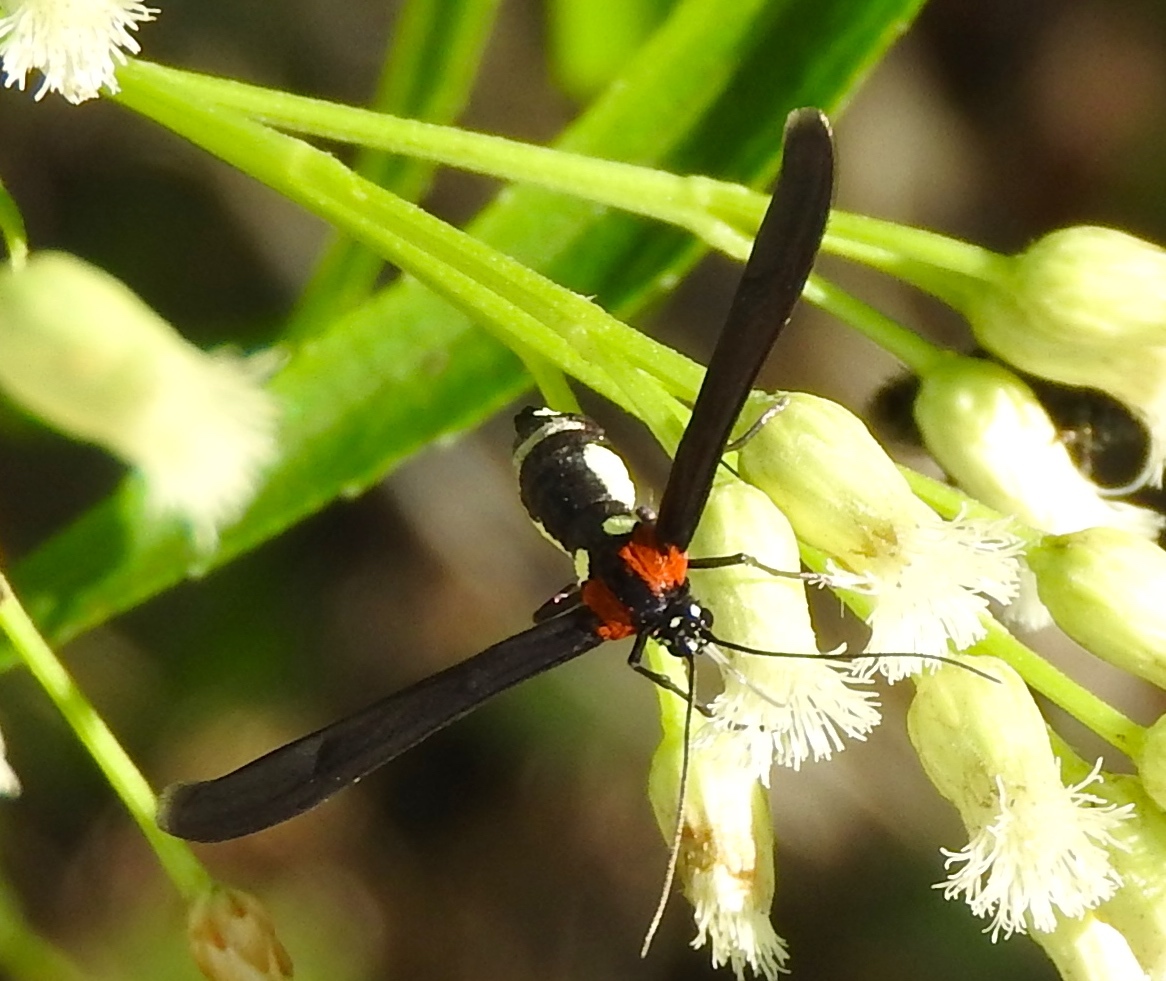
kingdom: Animalia
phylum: Arthropoda
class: Insecta
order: Lepidoptera
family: Pterophoridae
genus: Hellinsia
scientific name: Hellinsia chamelai
